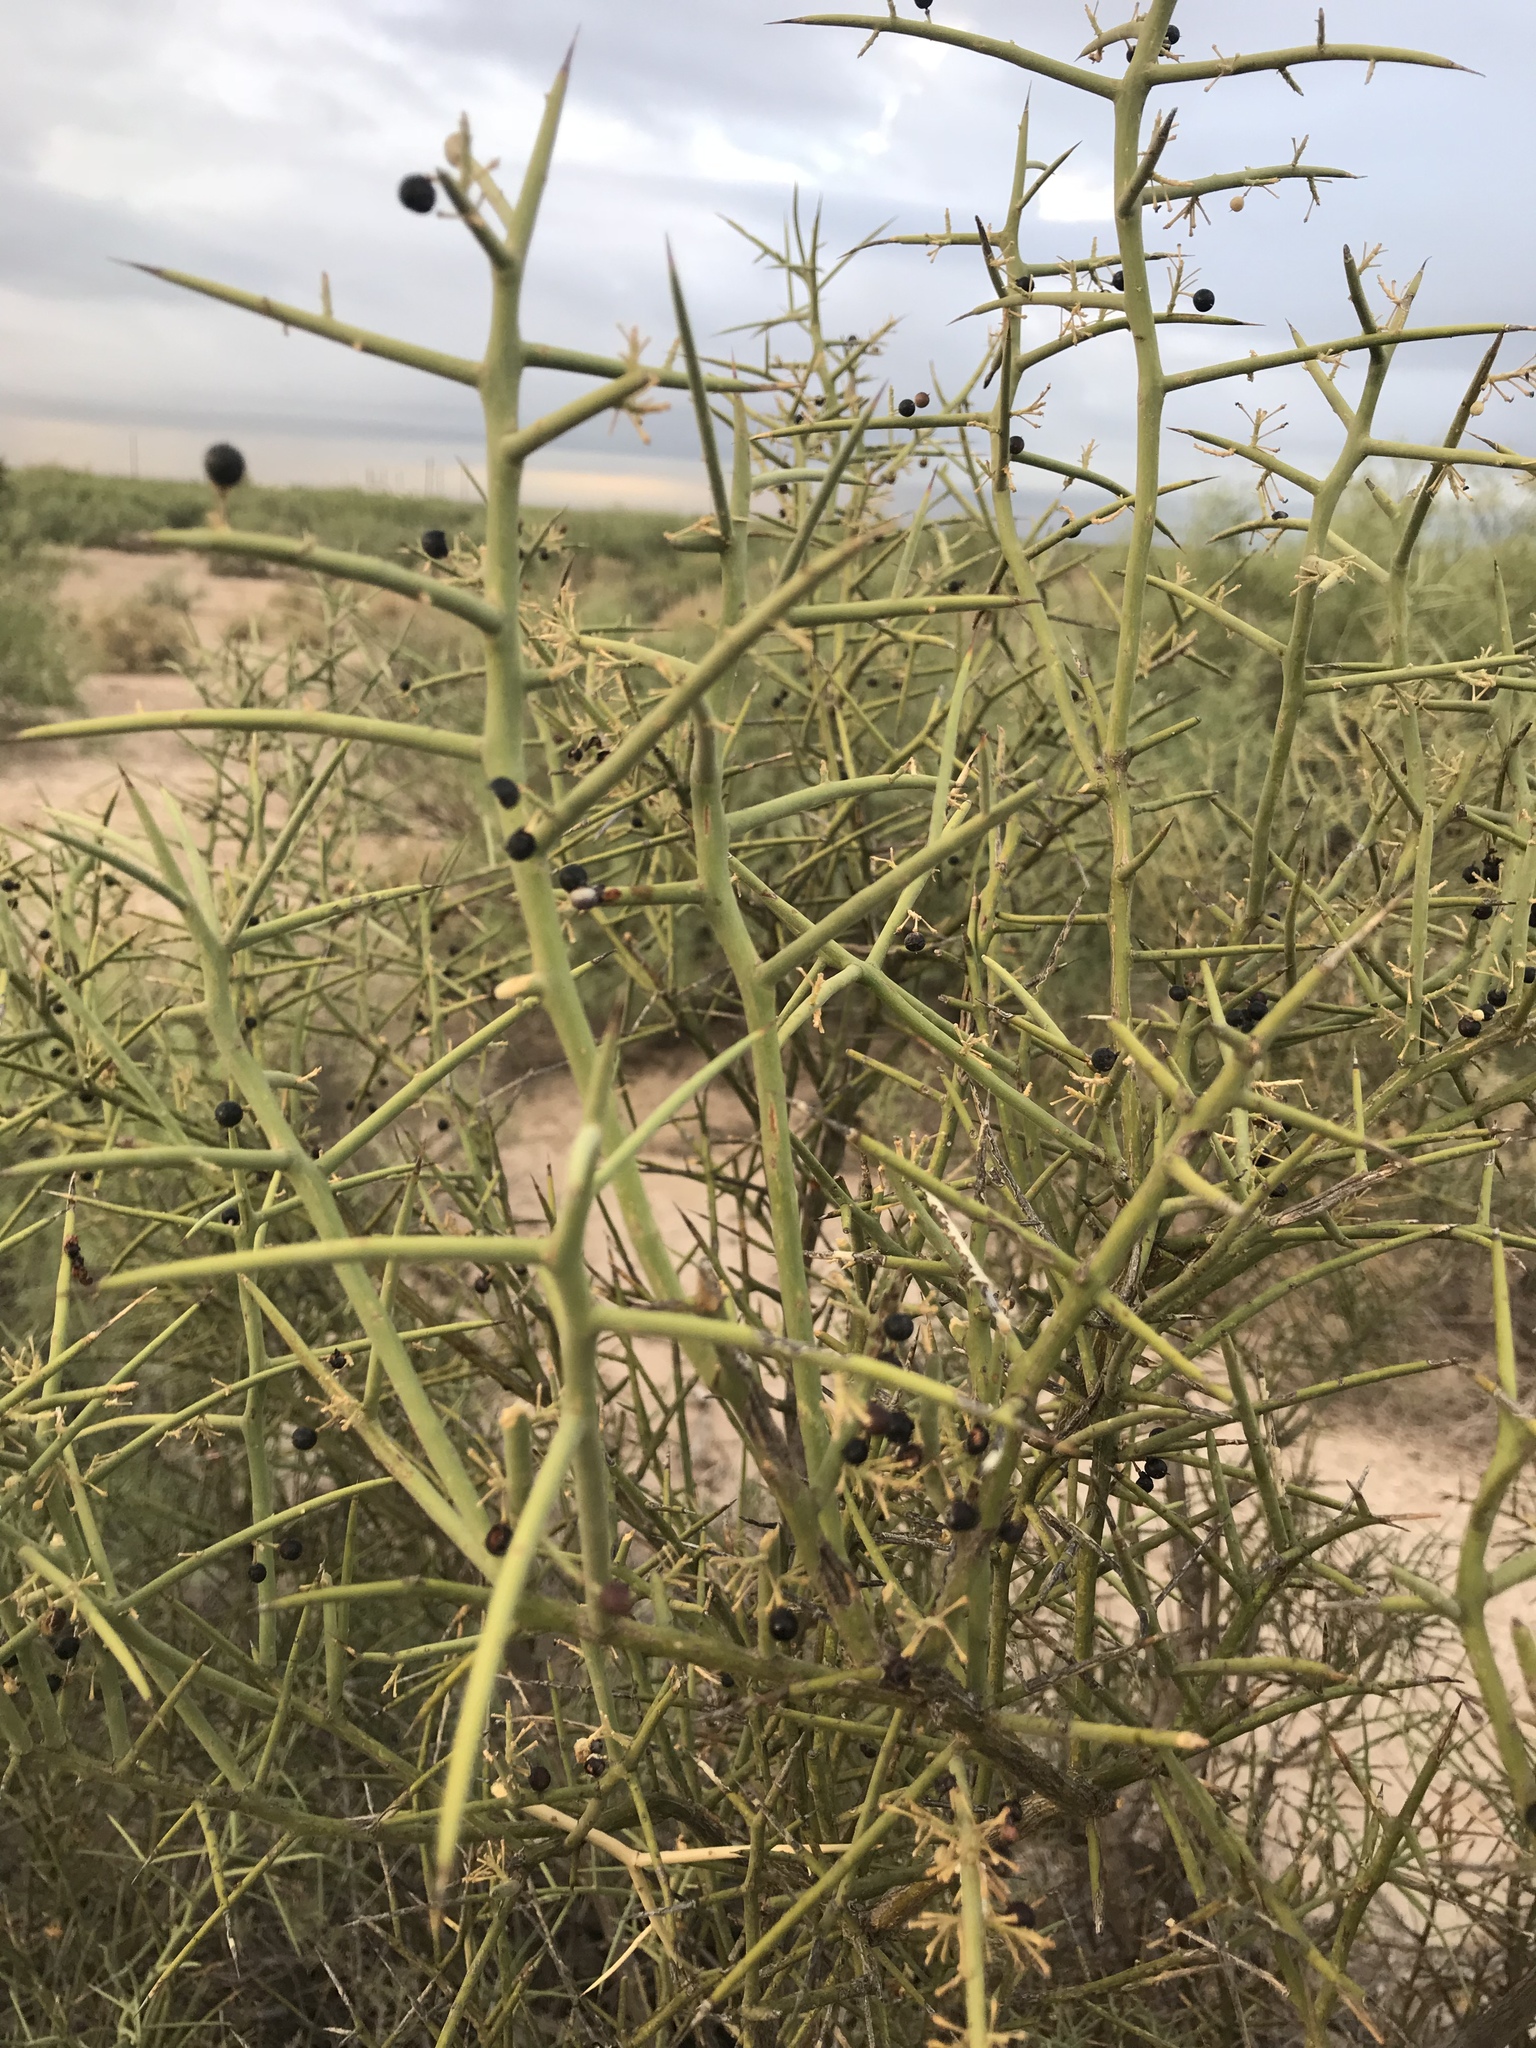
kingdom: Plantae
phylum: Tracheophyta
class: Magnoliopsida
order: Brassicales
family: Koeberliniaceae
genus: Koeberlinia
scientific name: Koeberlinia spinosa
